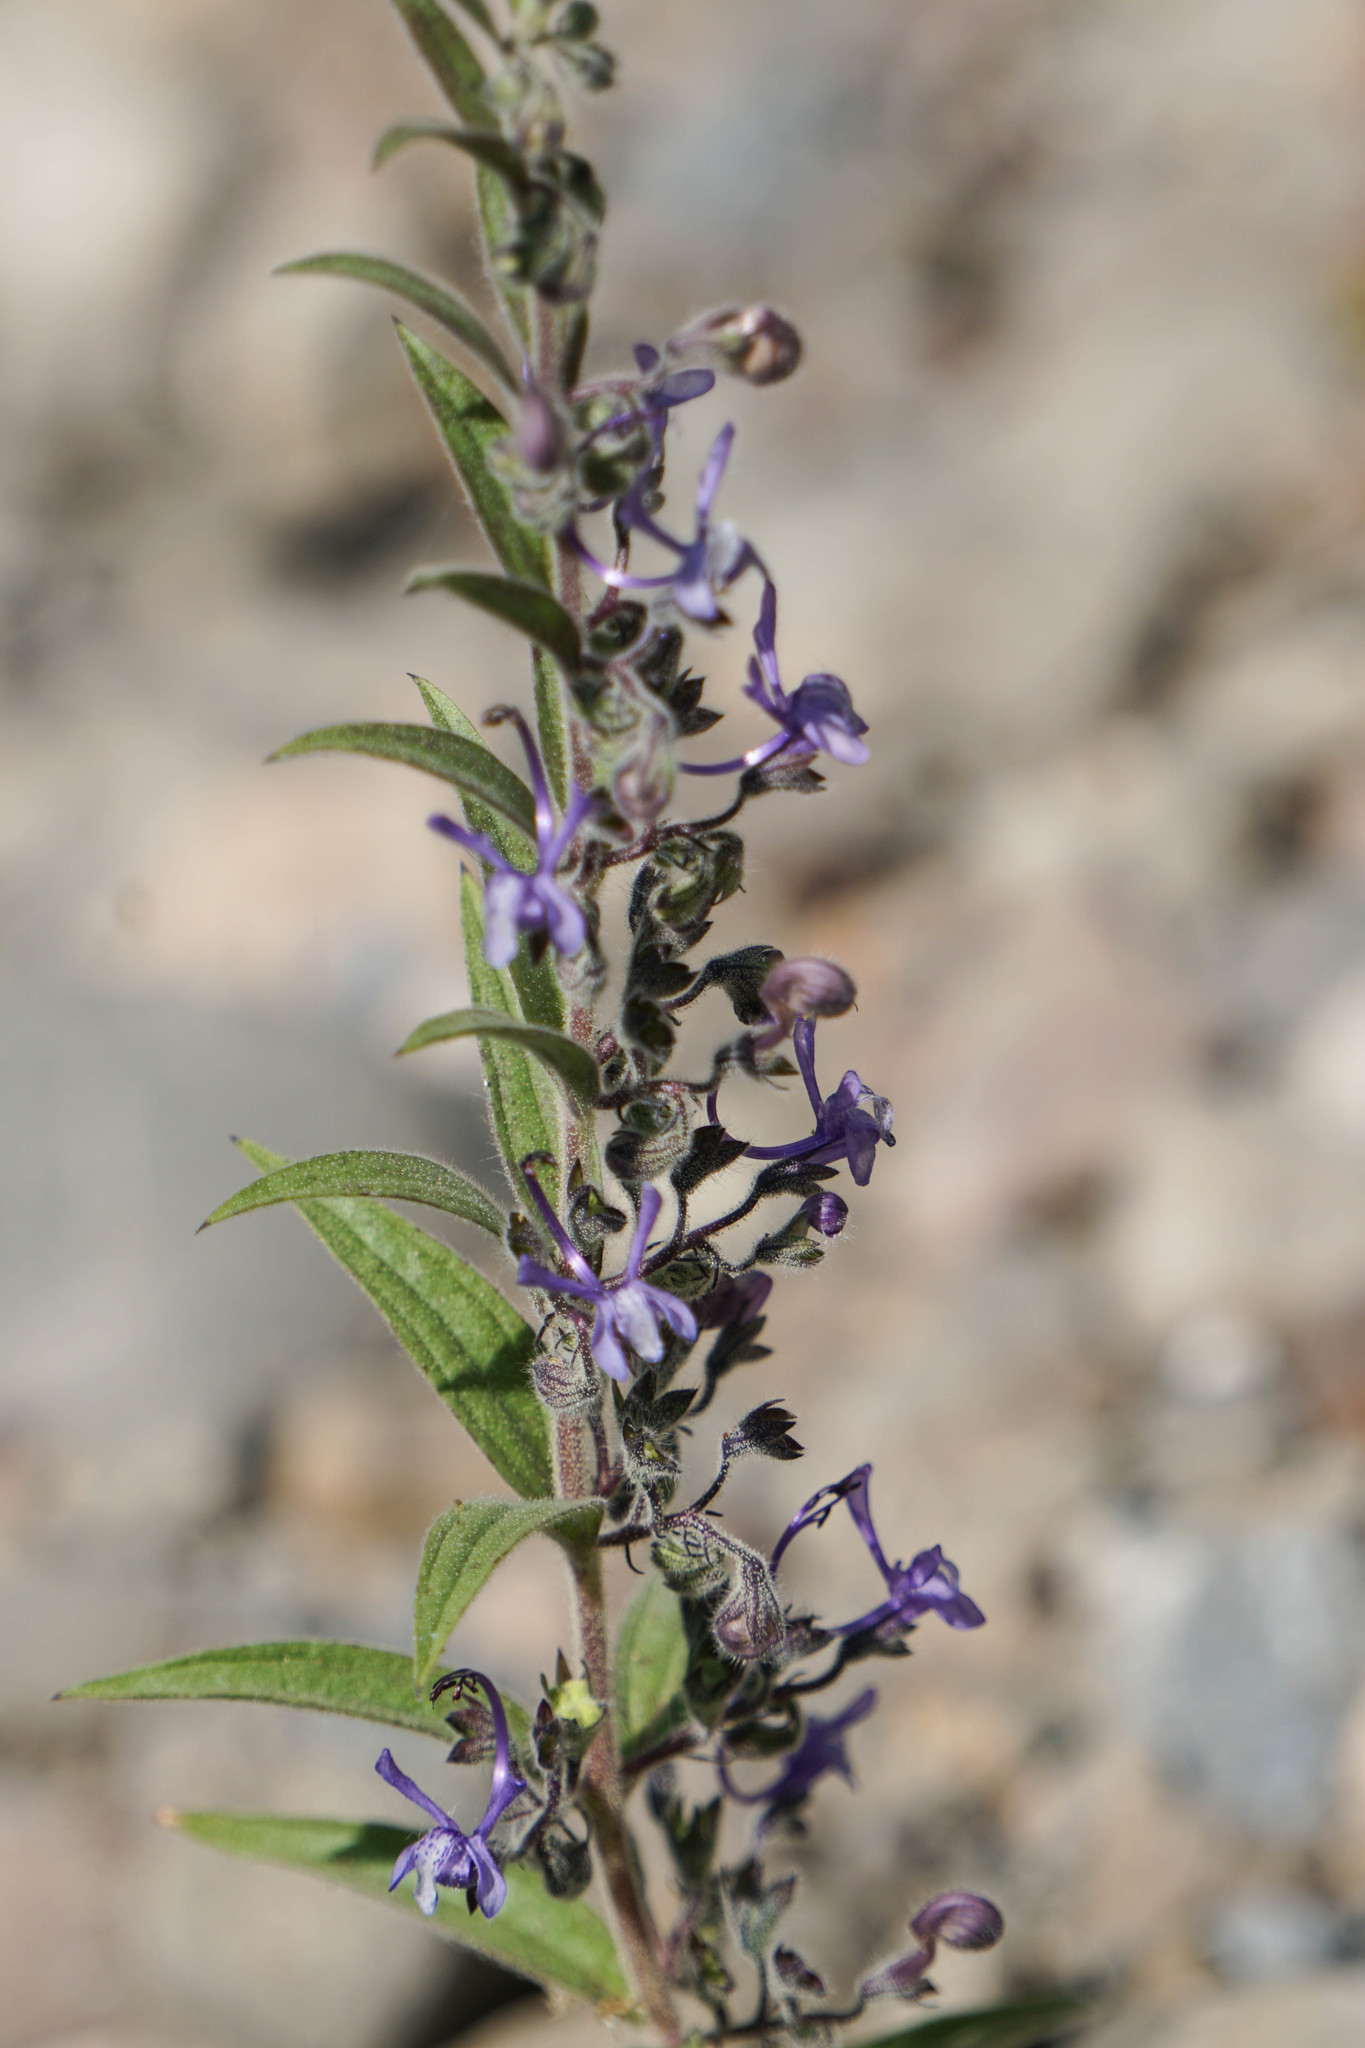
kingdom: Plantae
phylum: Tracheophyta
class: Magnoliopsida
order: Lamiales
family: Lamiaceae
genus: Trichostema
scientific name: Trichostema lanceolatum
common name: Vinegar-weed
